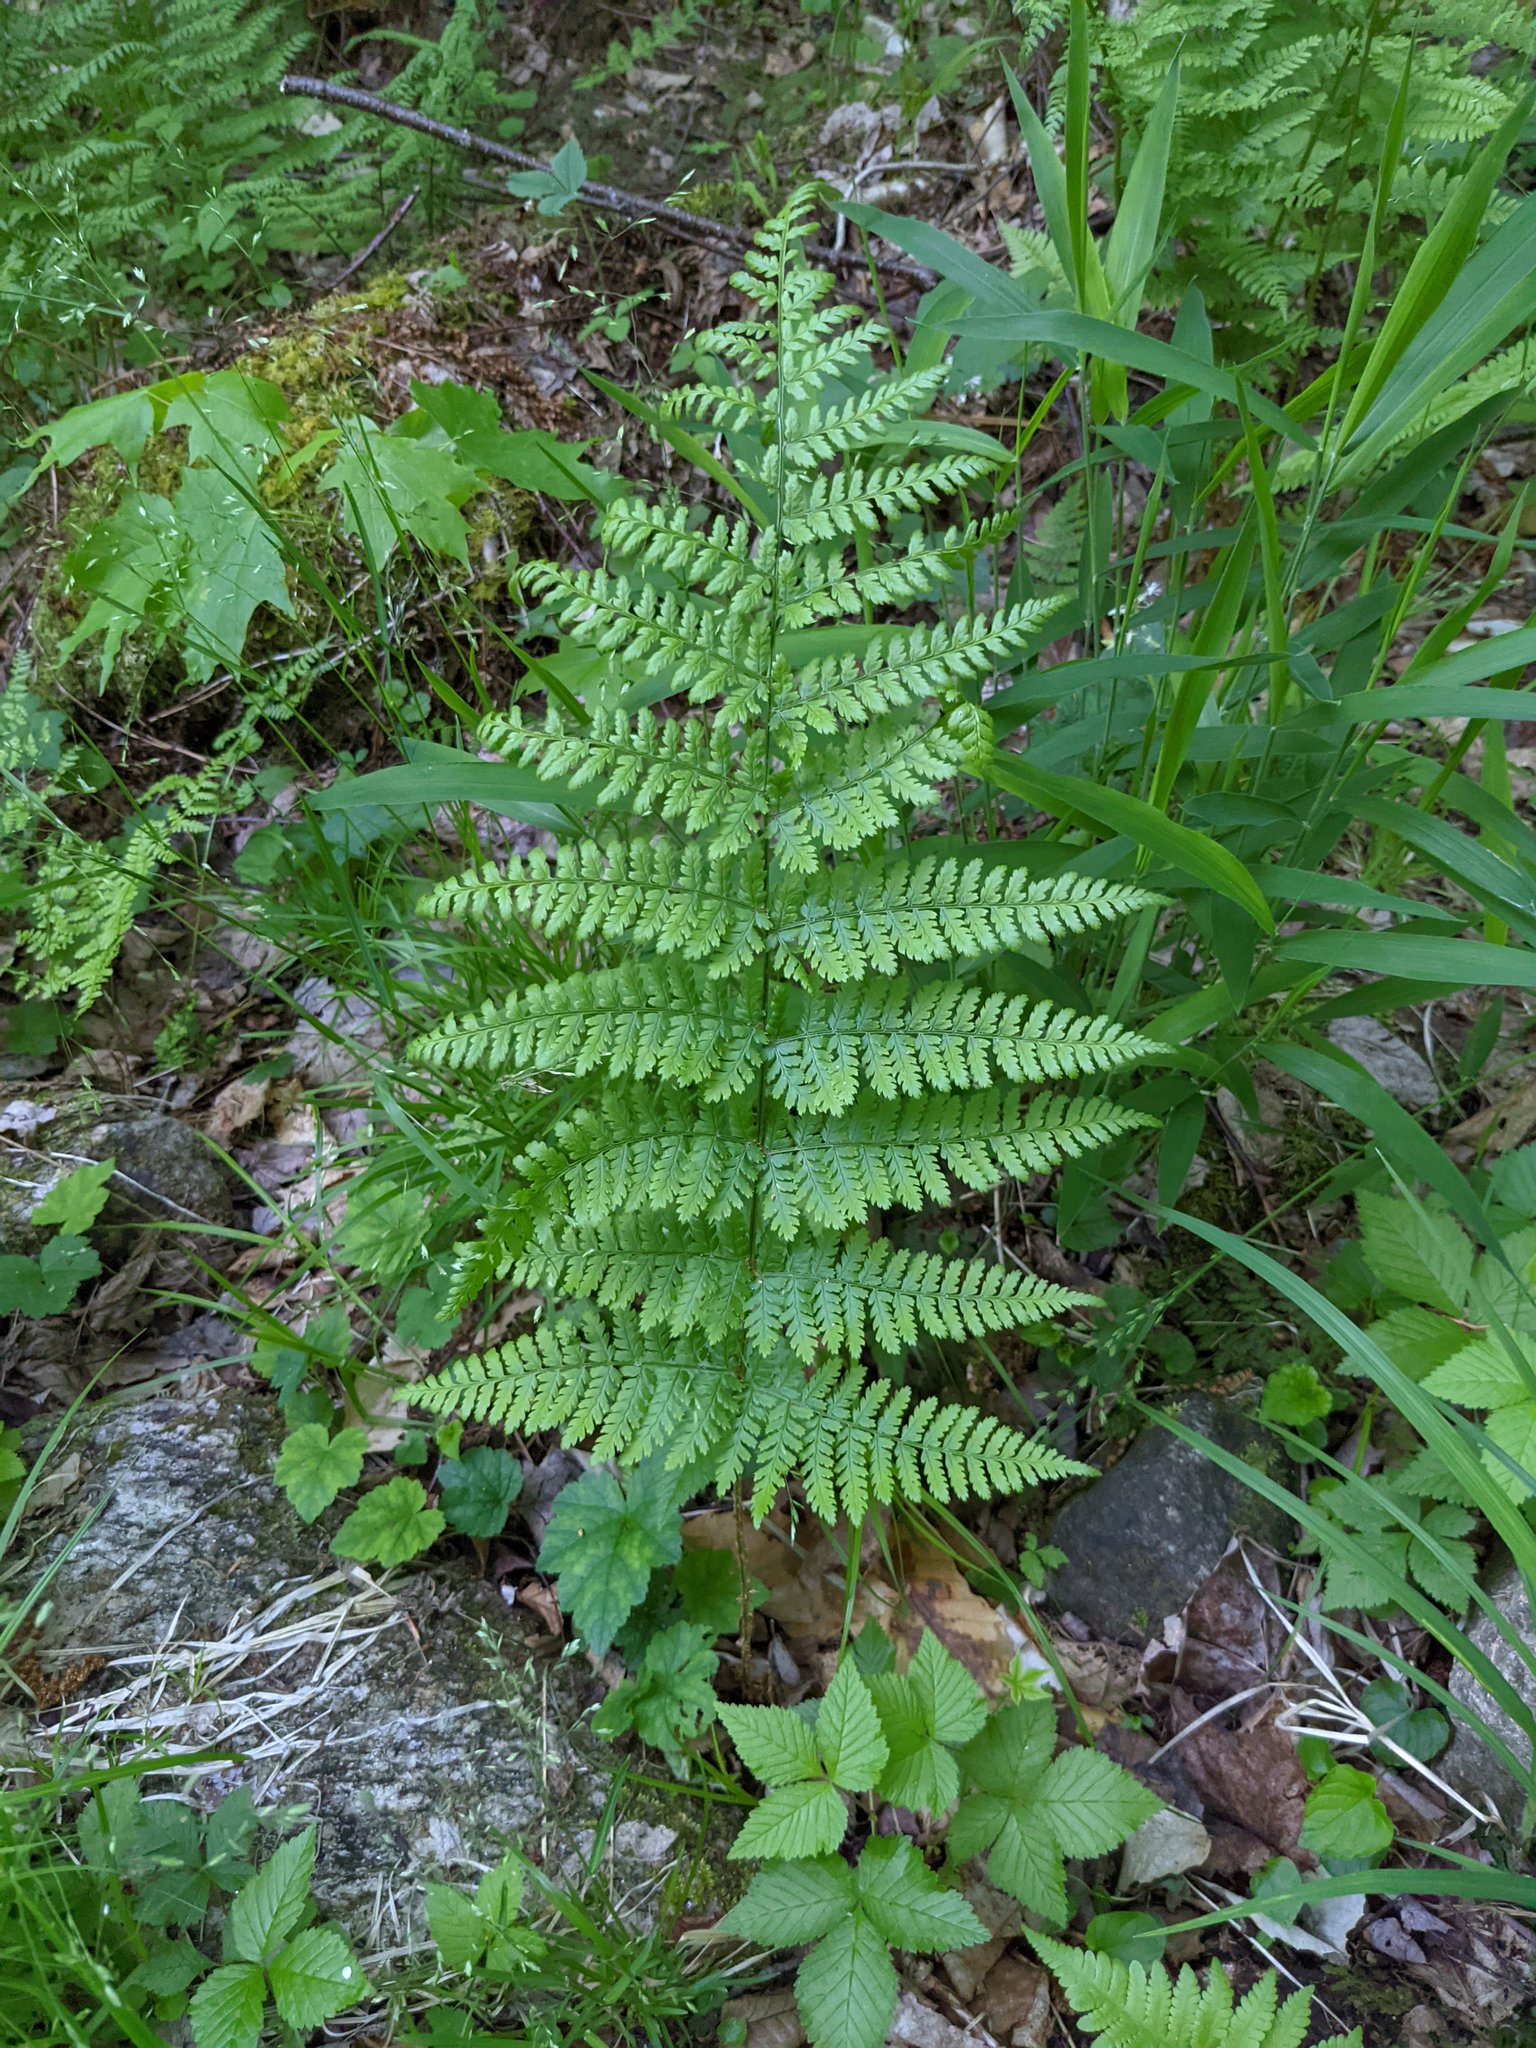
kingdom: Plantae
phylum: Tracheophyta
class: Polypodiopsida
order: Polypodiales
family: Dryopteridaceae
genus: Dryopteris
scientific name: Dryopteris intermedia
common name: Evergreen wood fern
